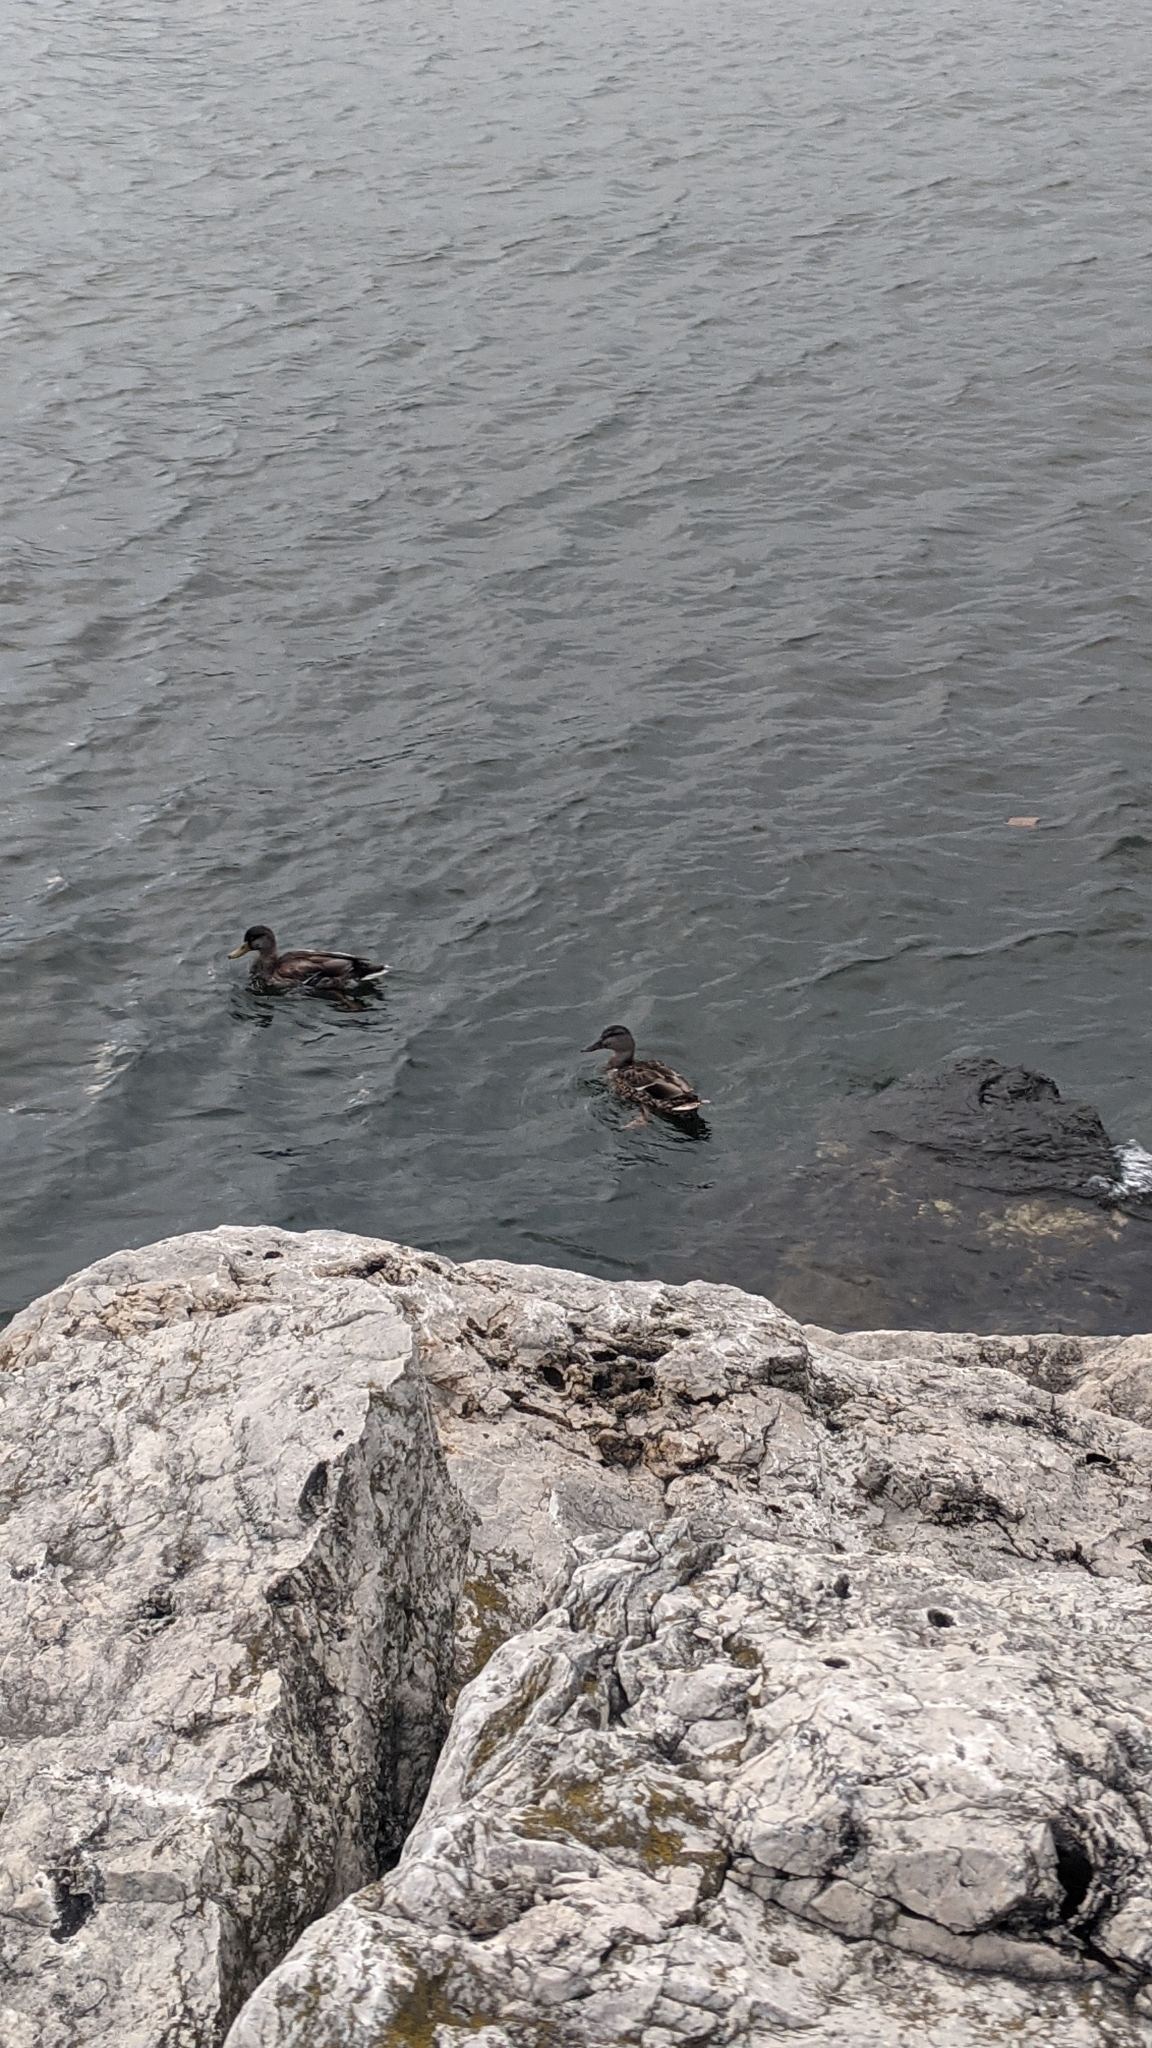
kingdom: Animalia
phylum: Chordata
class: Aves
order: Anseriformes
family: Anatidae
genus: Anas
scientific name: Anas platyrhynchos
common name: Mallard
